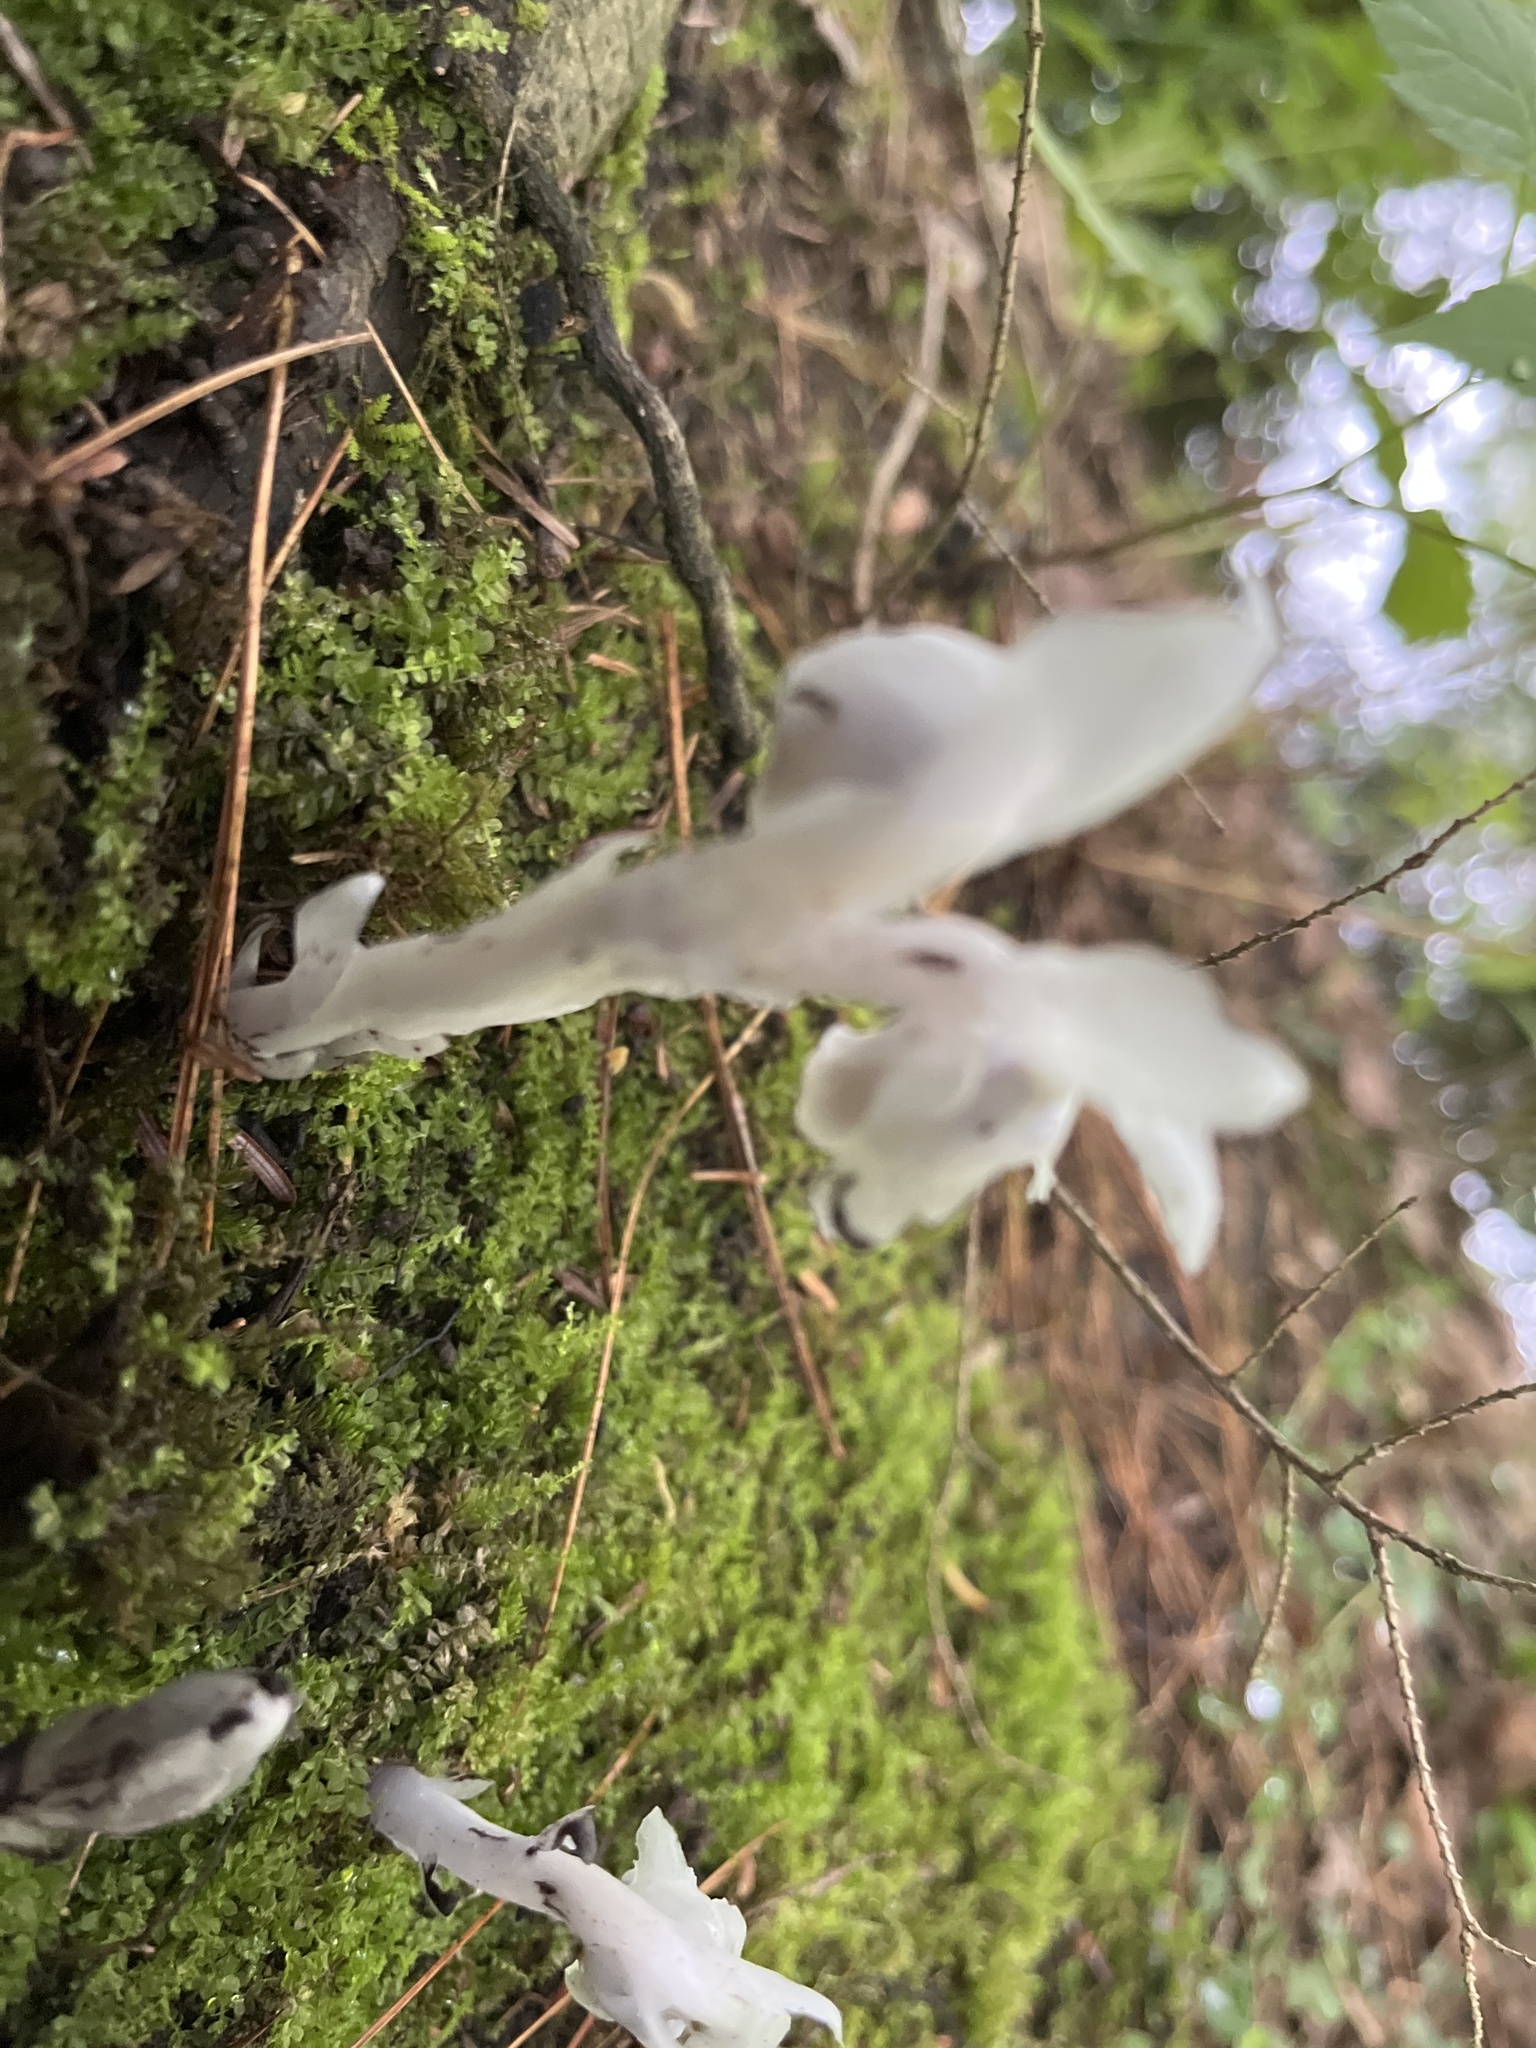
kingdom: Plantae
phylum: Tracheophyta
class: Magnoliopsida
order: Ericales
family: Ericaceae
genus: Monotropa
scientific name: Monotropa uniflora
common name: Convulsion root
